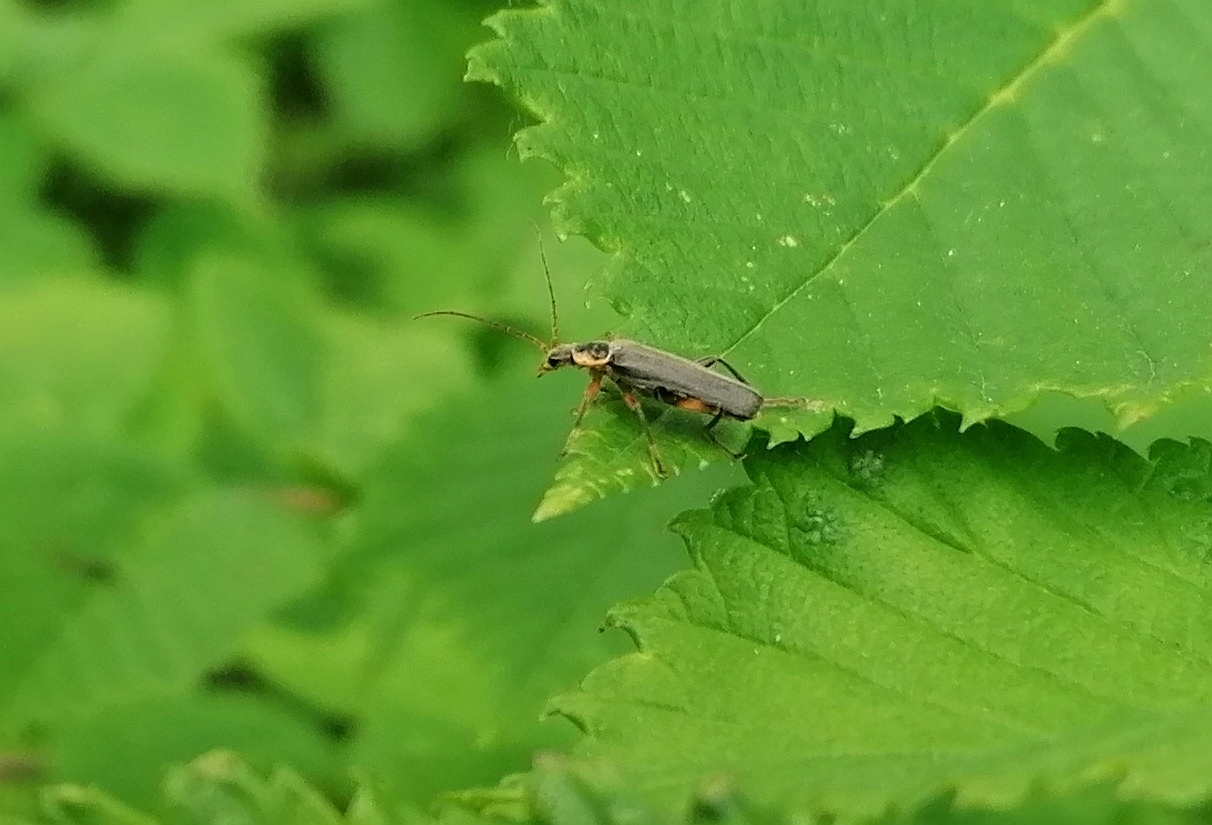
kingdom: Animalia
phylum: Arthropoda
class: Insecta
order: Coleoptera
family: Cantharidae
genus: Cantharis
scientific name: Cantharis nigricans
